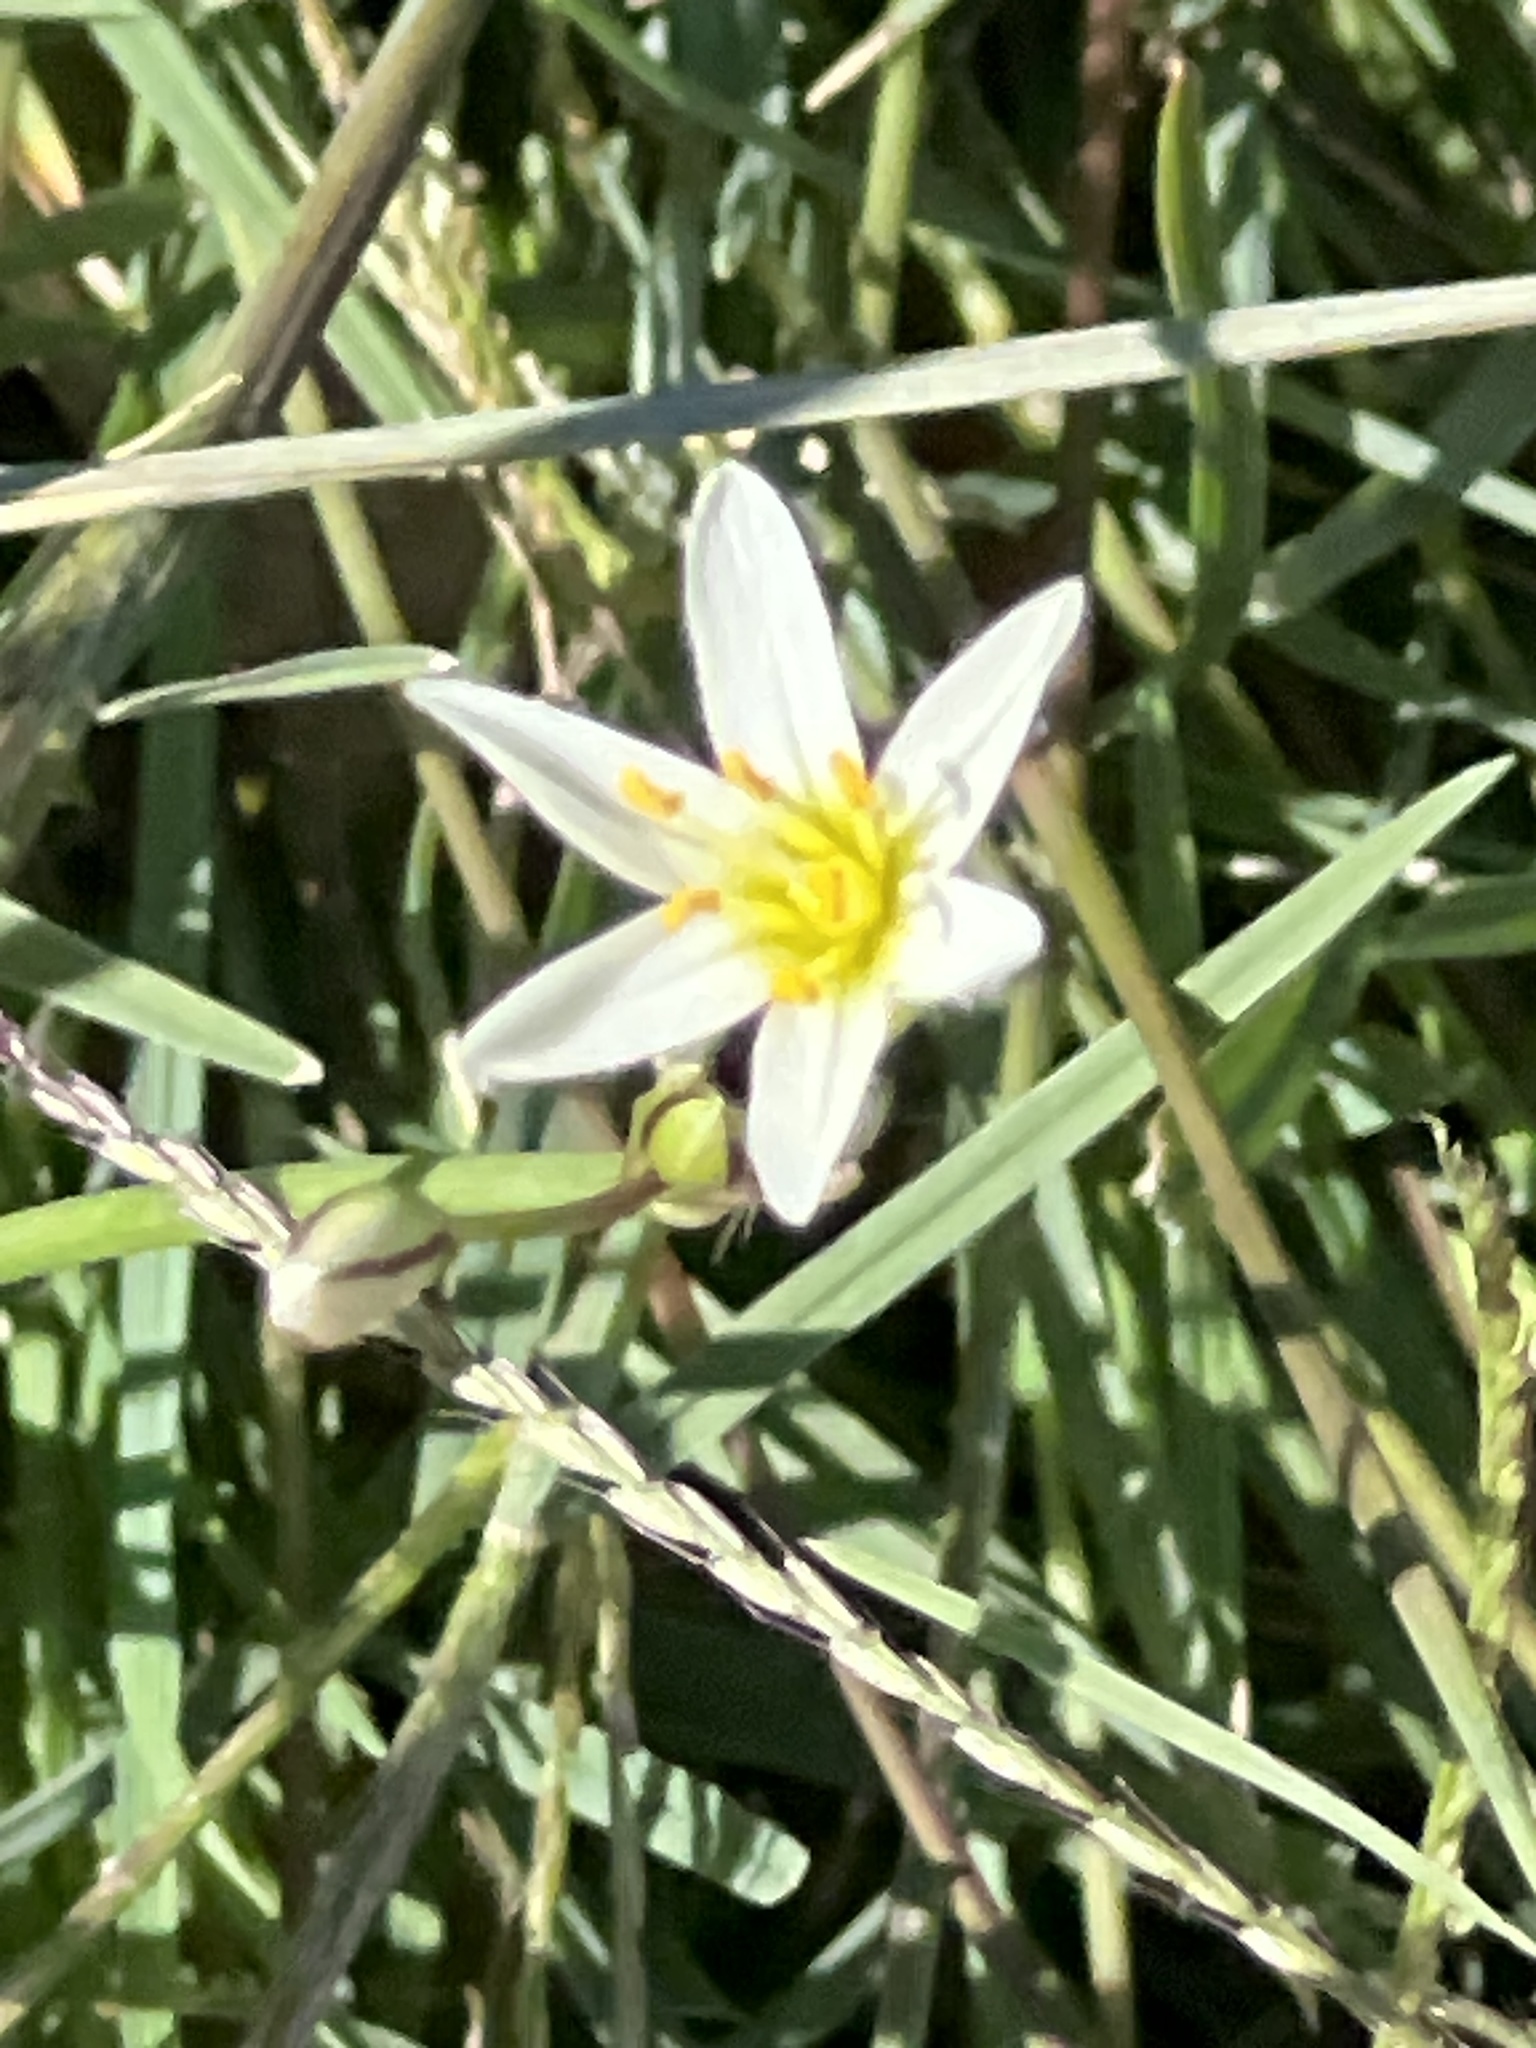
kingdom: Plantae
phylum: Tracheophyta
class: Liliopsida
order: Asparagales
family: Amaryllidaceae
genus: Nothoscordum
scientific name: Nothoscordum bivalve
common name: Crow-poison
